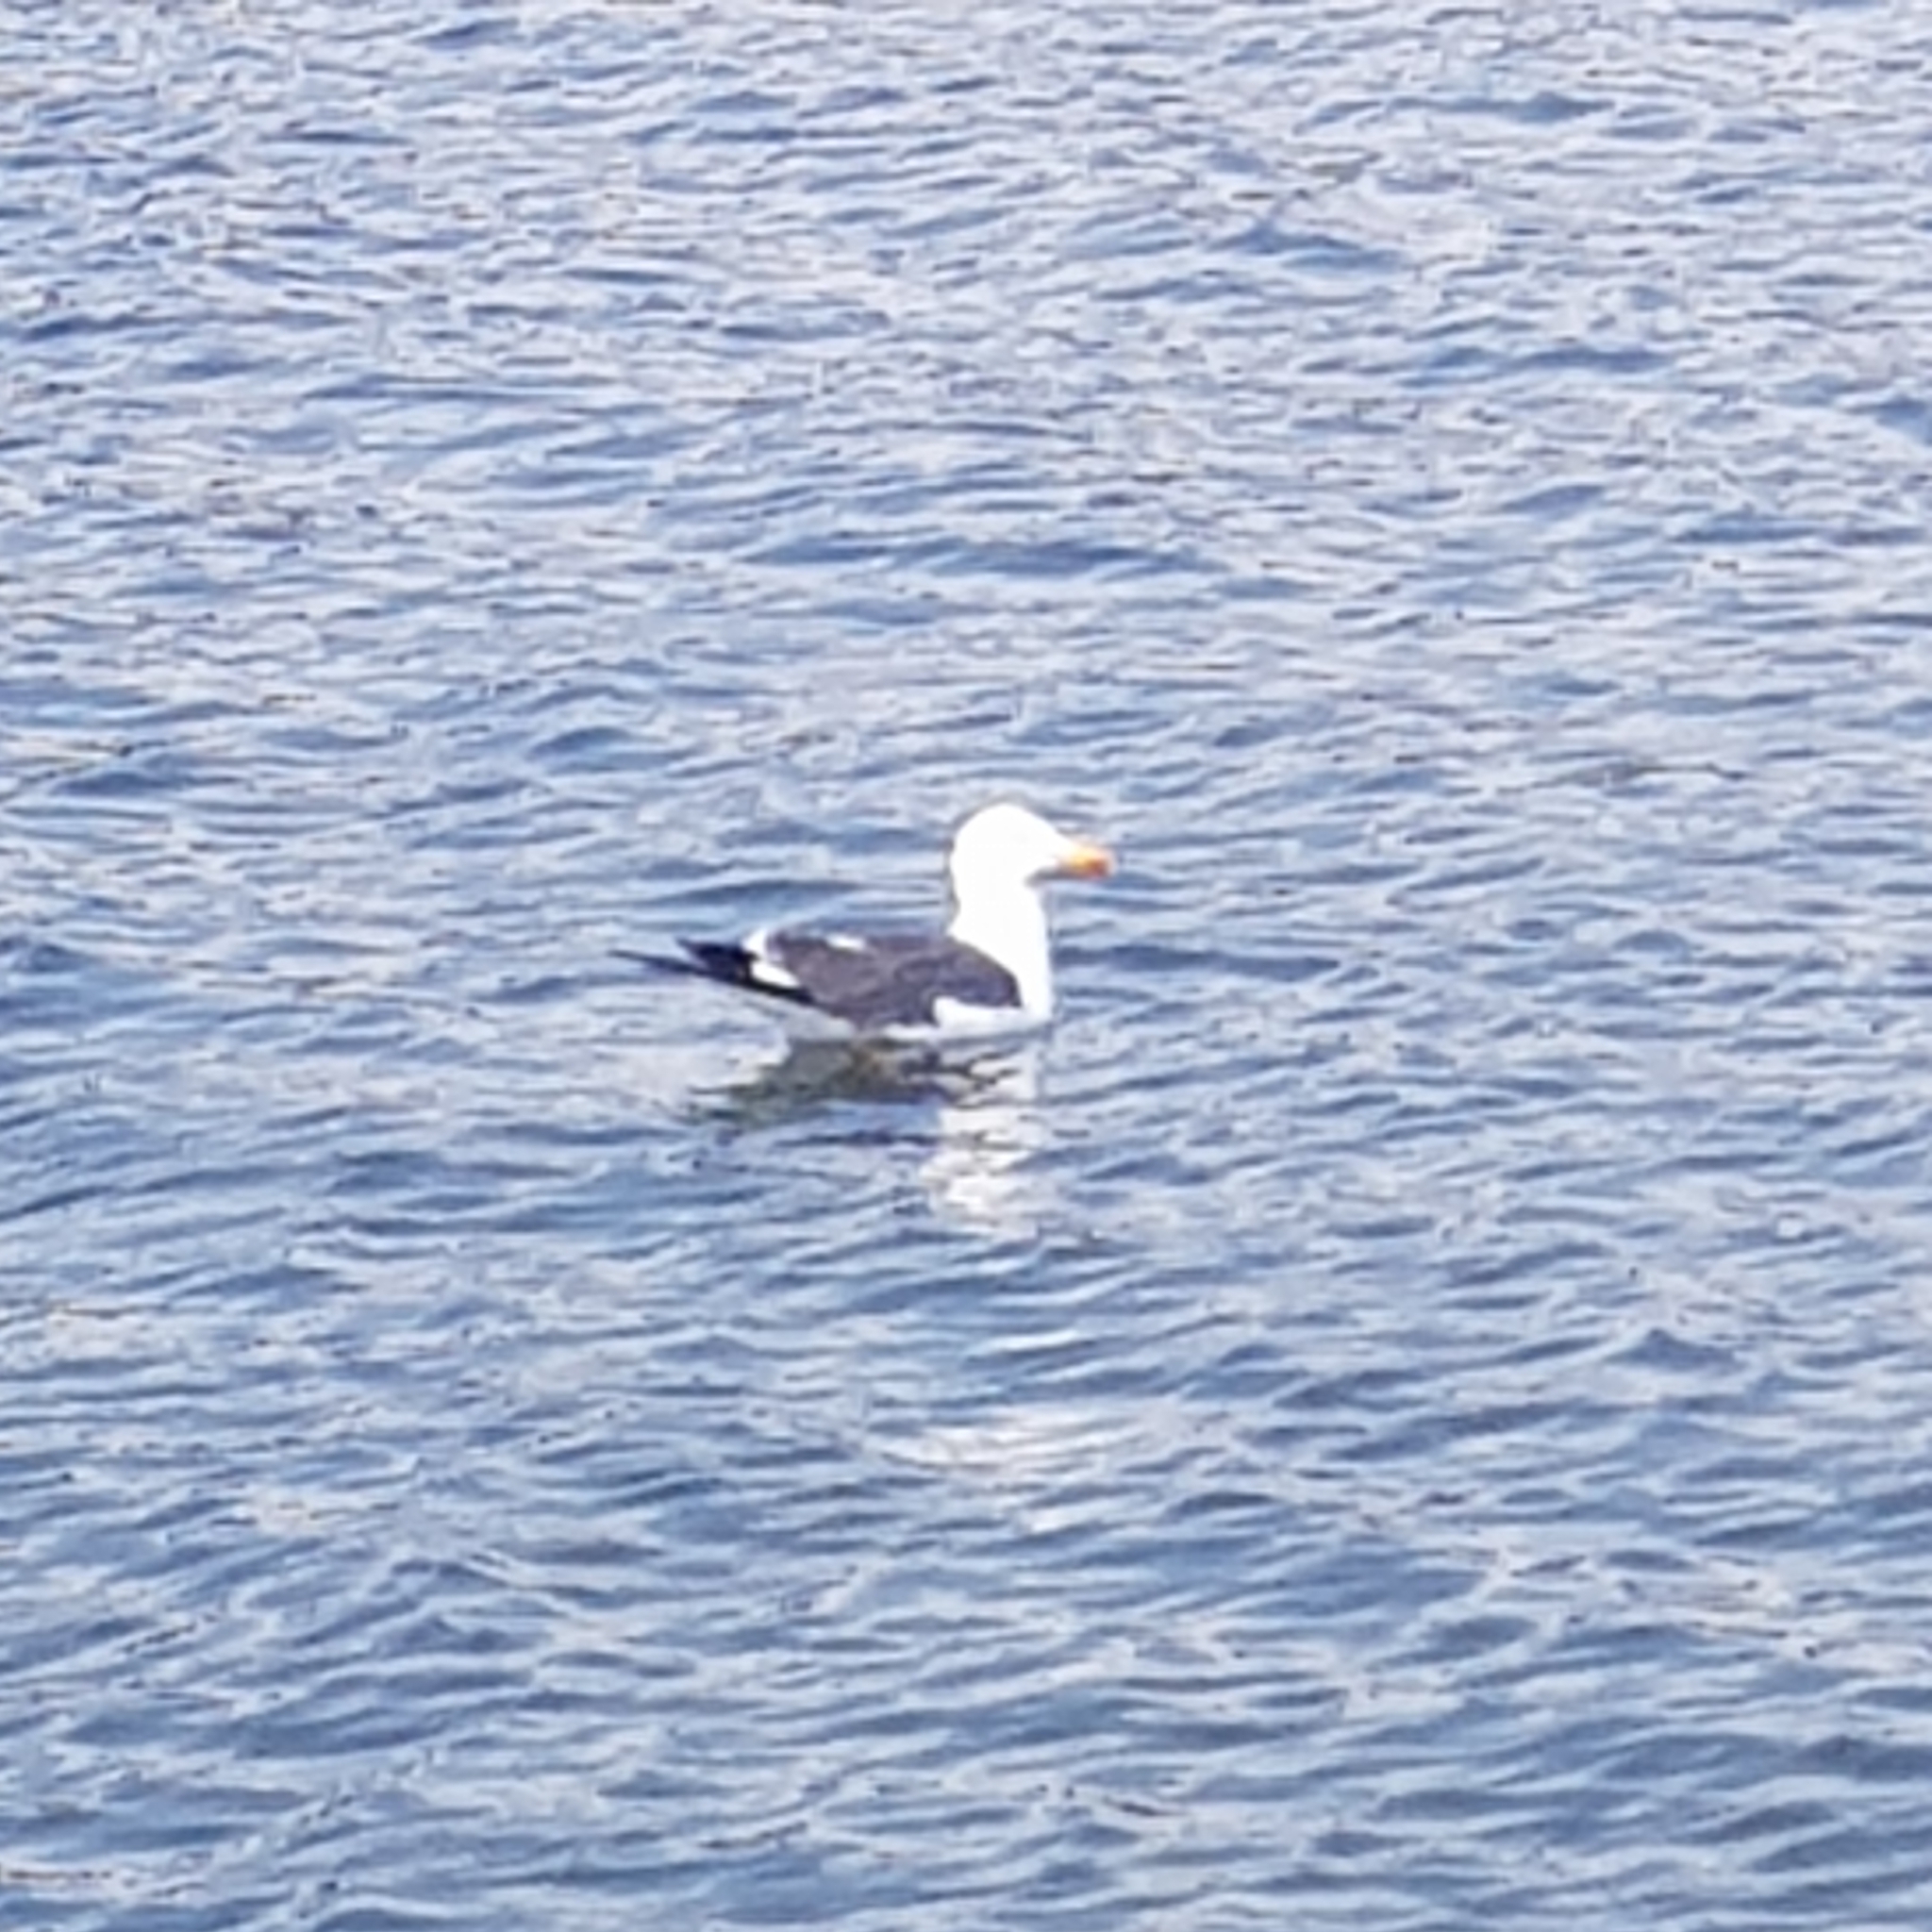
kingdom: Animalia
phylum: Chordata
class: Aves
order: Charadriiformes
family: Laridae
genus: Larus
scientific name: Larus fuscus
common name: Lesser black-backed gull
